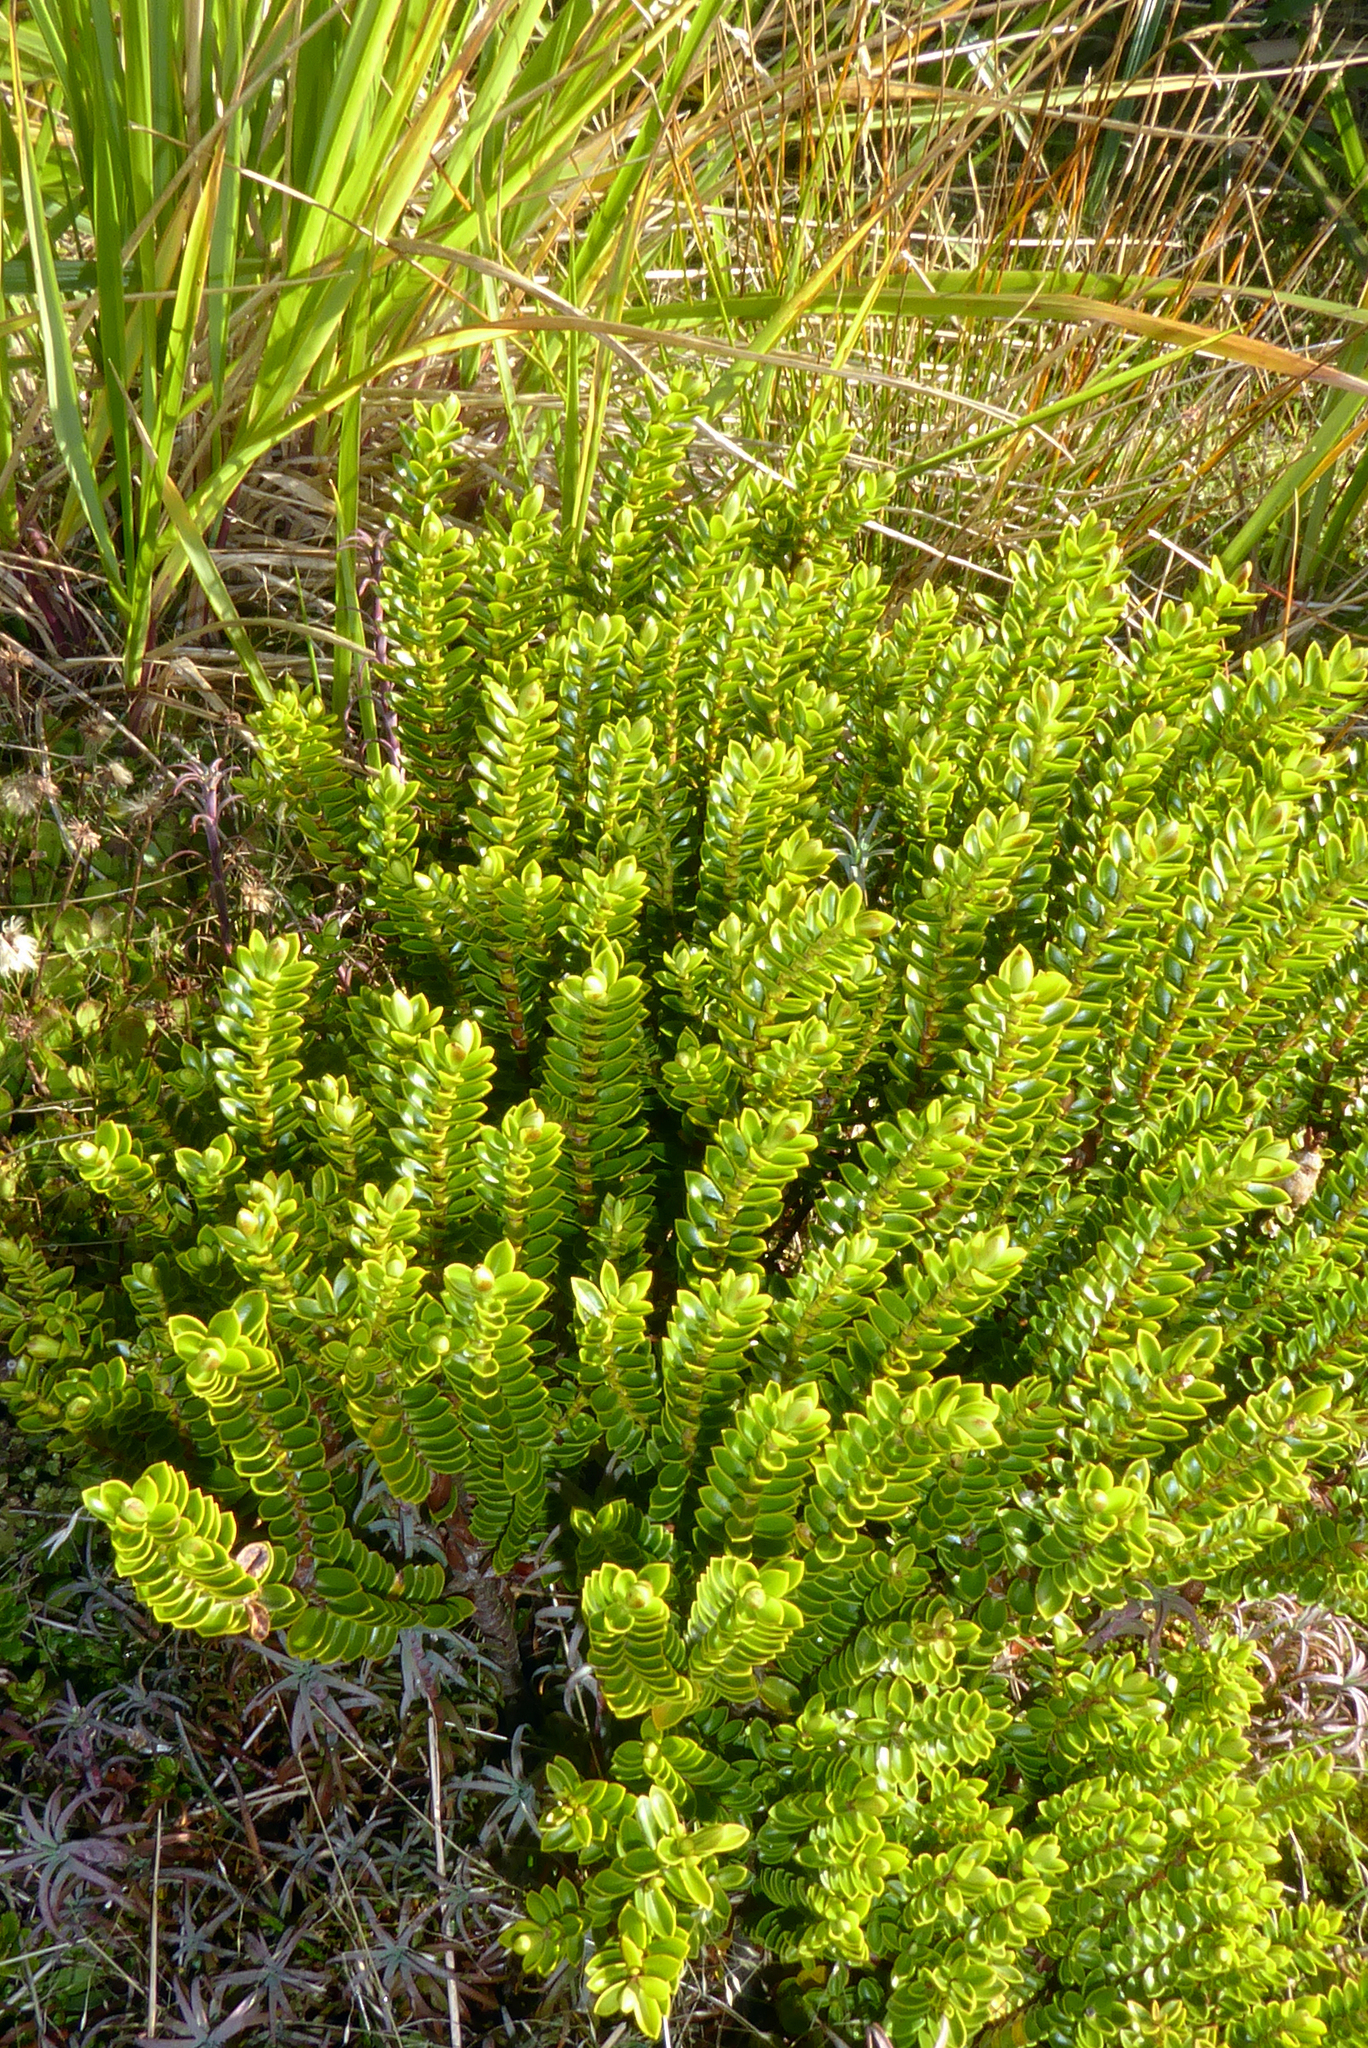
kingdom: Plantae
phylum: Tracheophyta
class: Magnoliopsida
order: Lamiales
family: Plantaginaceae
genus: Veronica
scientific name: Veronica odora
